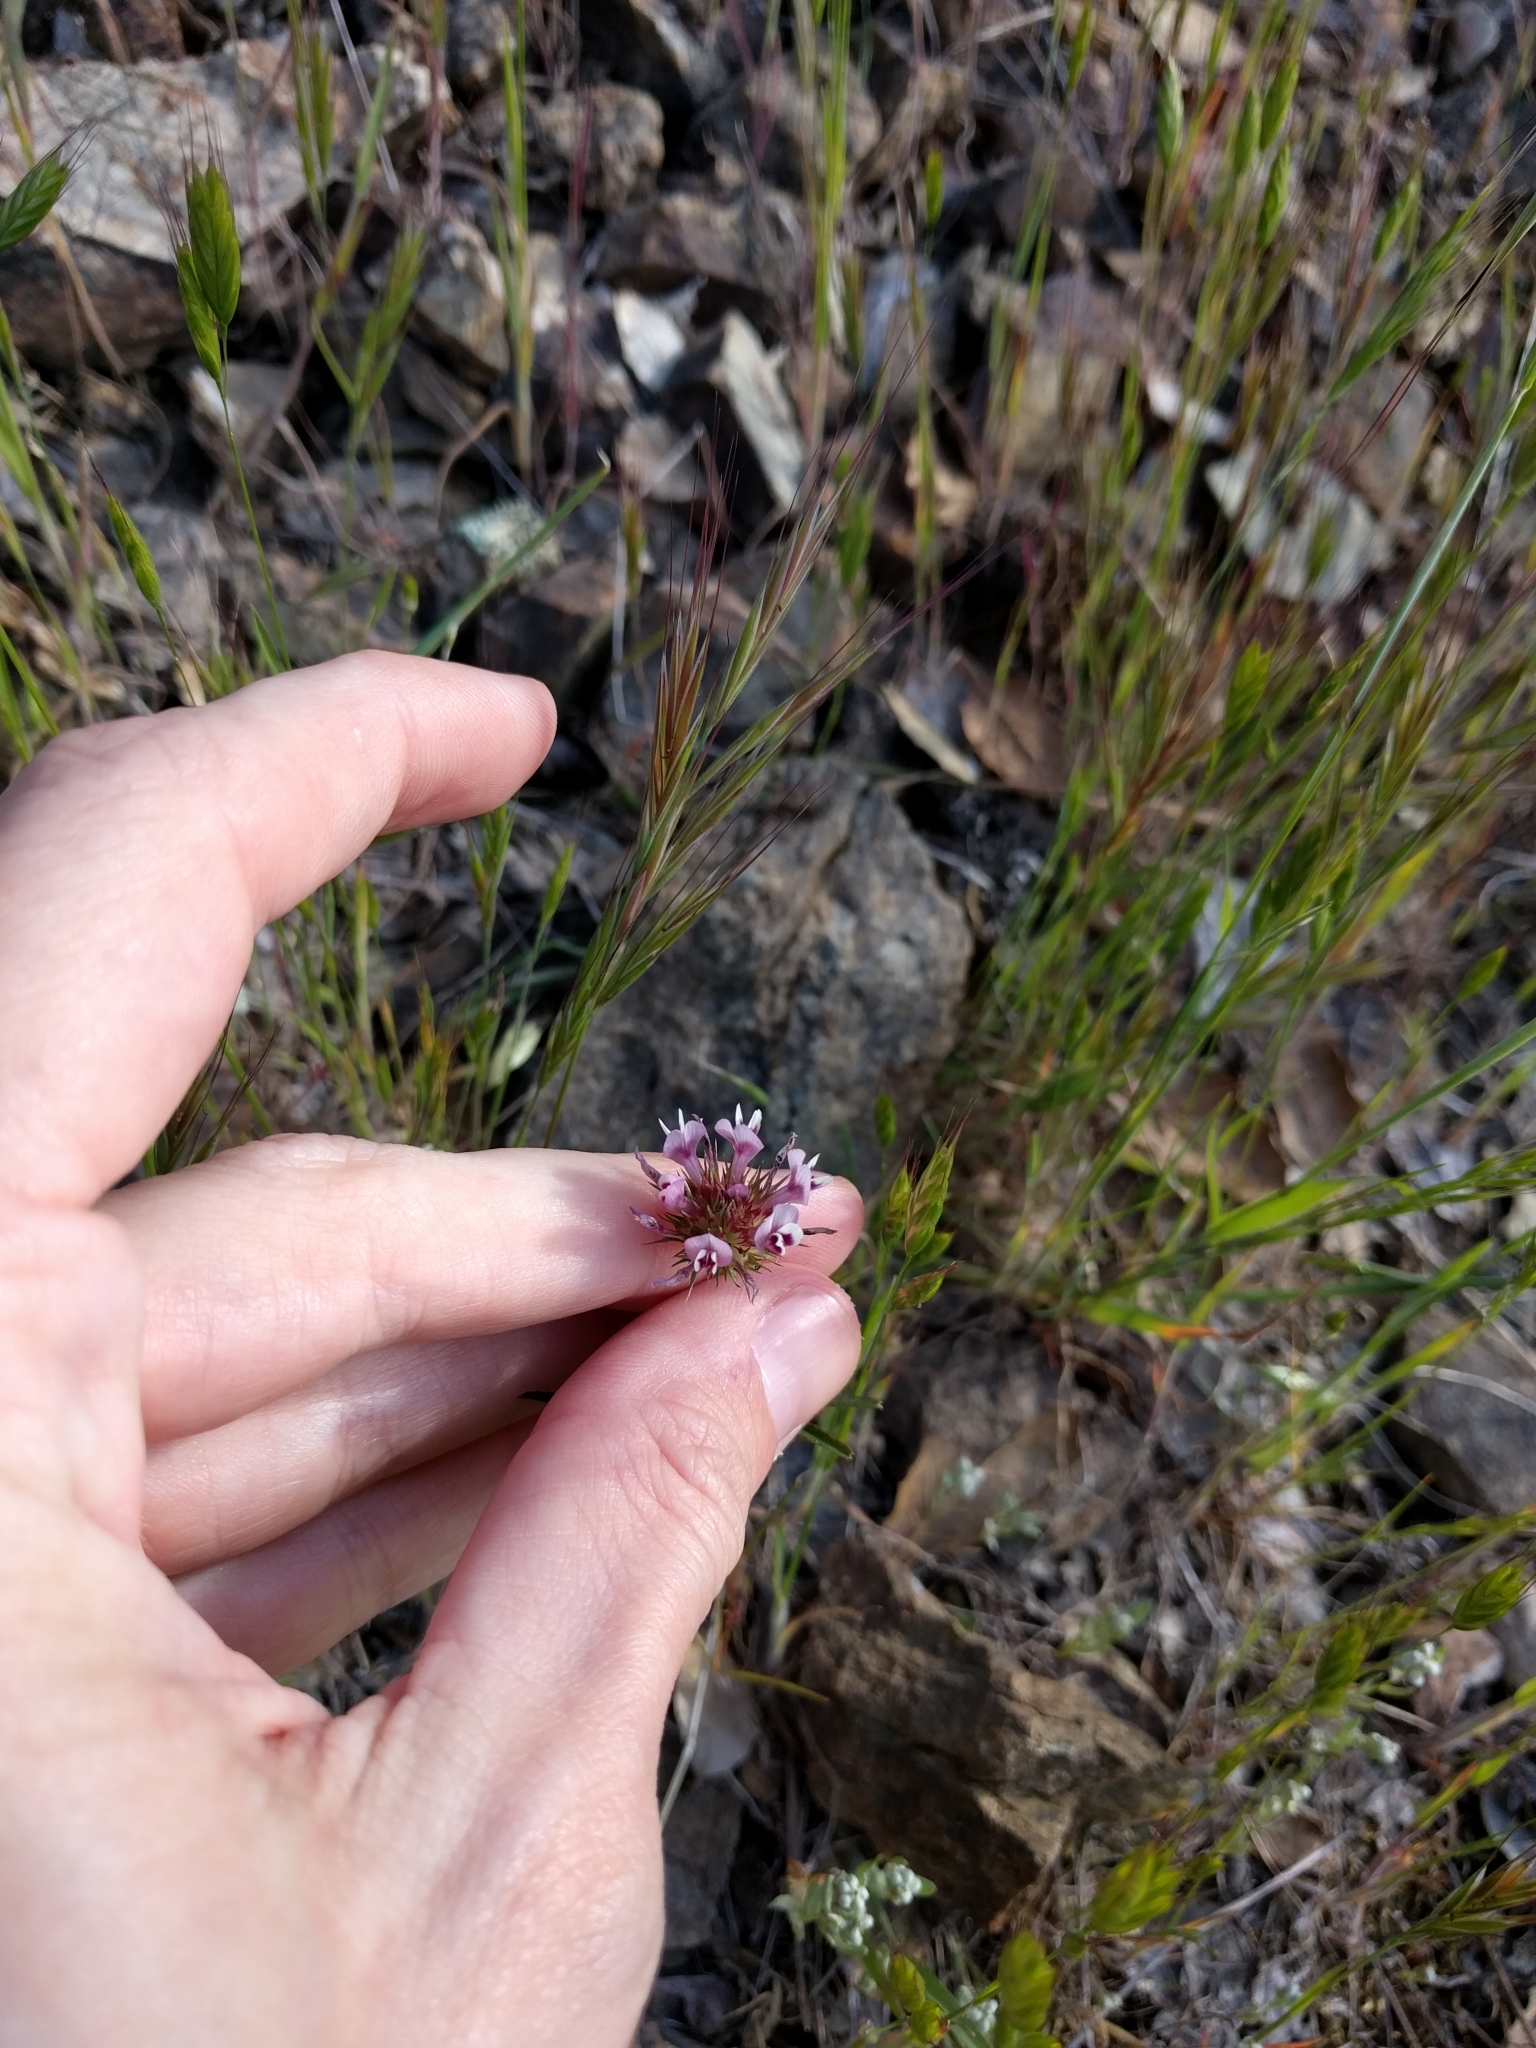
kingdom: Plantae
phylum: Tracheophyta
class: Magnoliopsida
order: Fabales
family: Fabaceae
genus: Trifolium
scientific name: Trifolium willdenovii
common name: Tomcat clover
